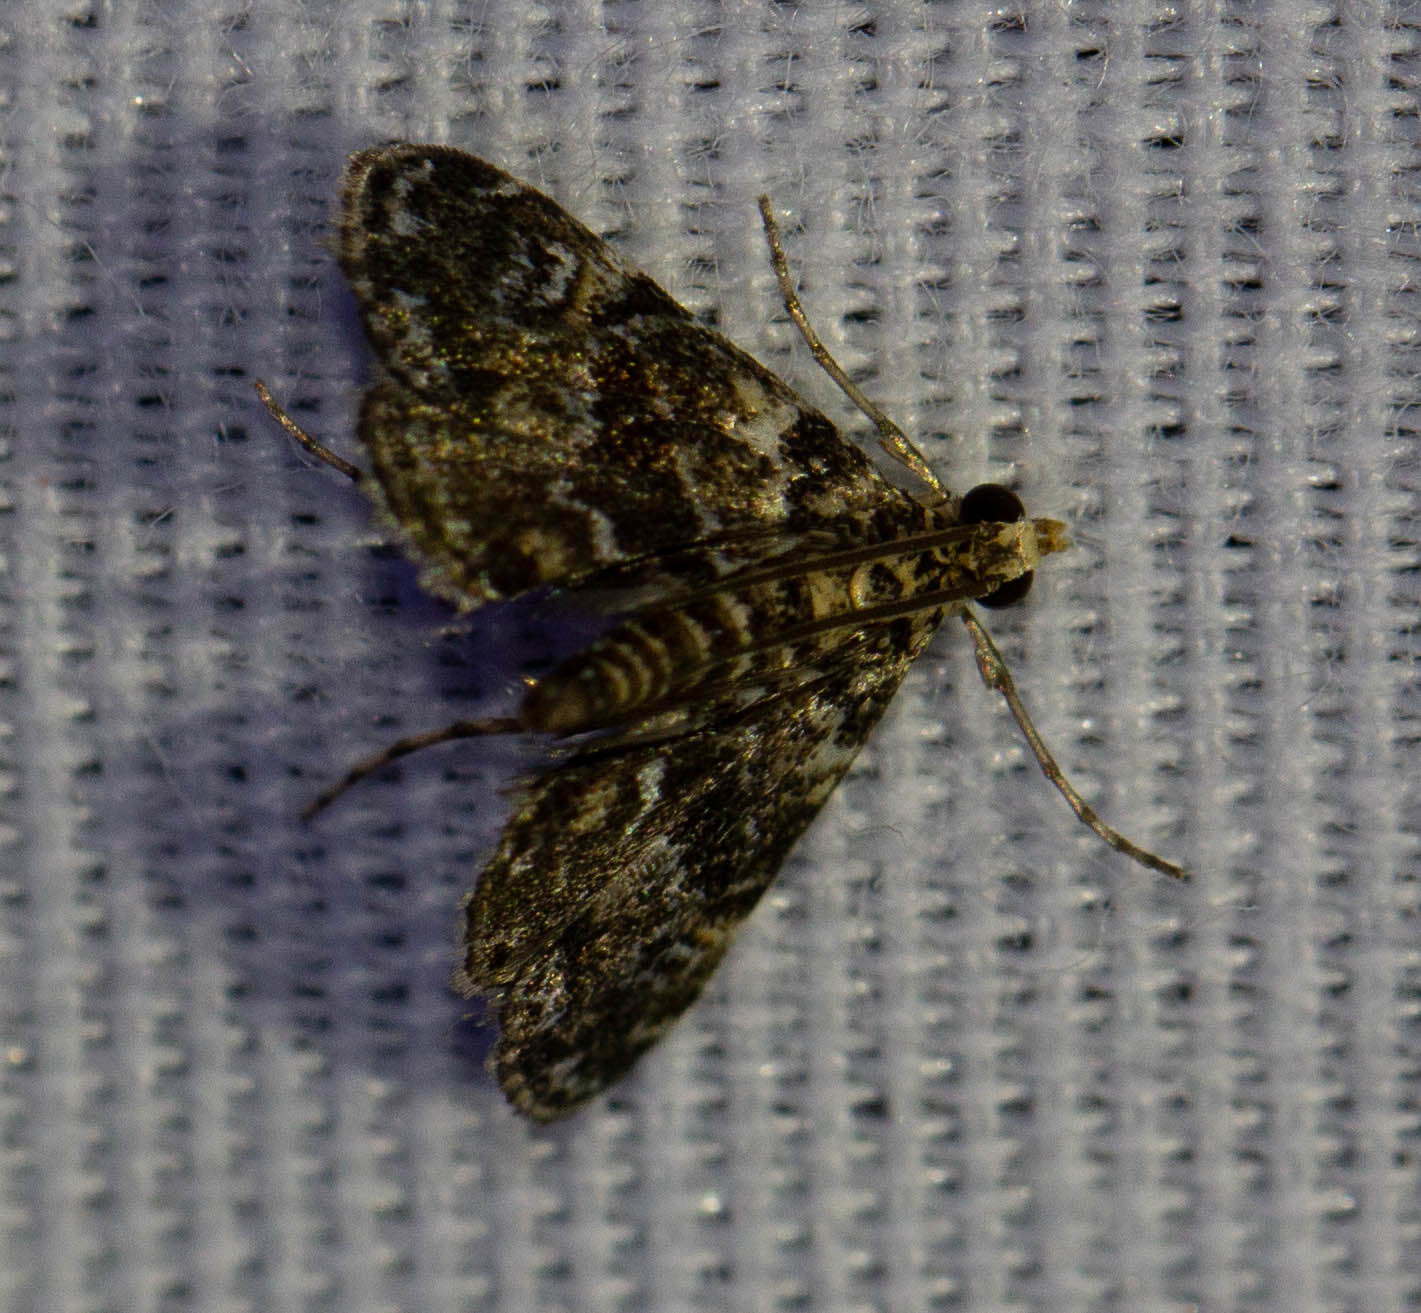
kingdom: Animalia
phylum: Arthropoda
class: Insecta
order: Lepidoptera
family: Crambidae
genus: Elophila
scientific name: Elophila obliteralis
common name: Waterlily leafcutter moth
